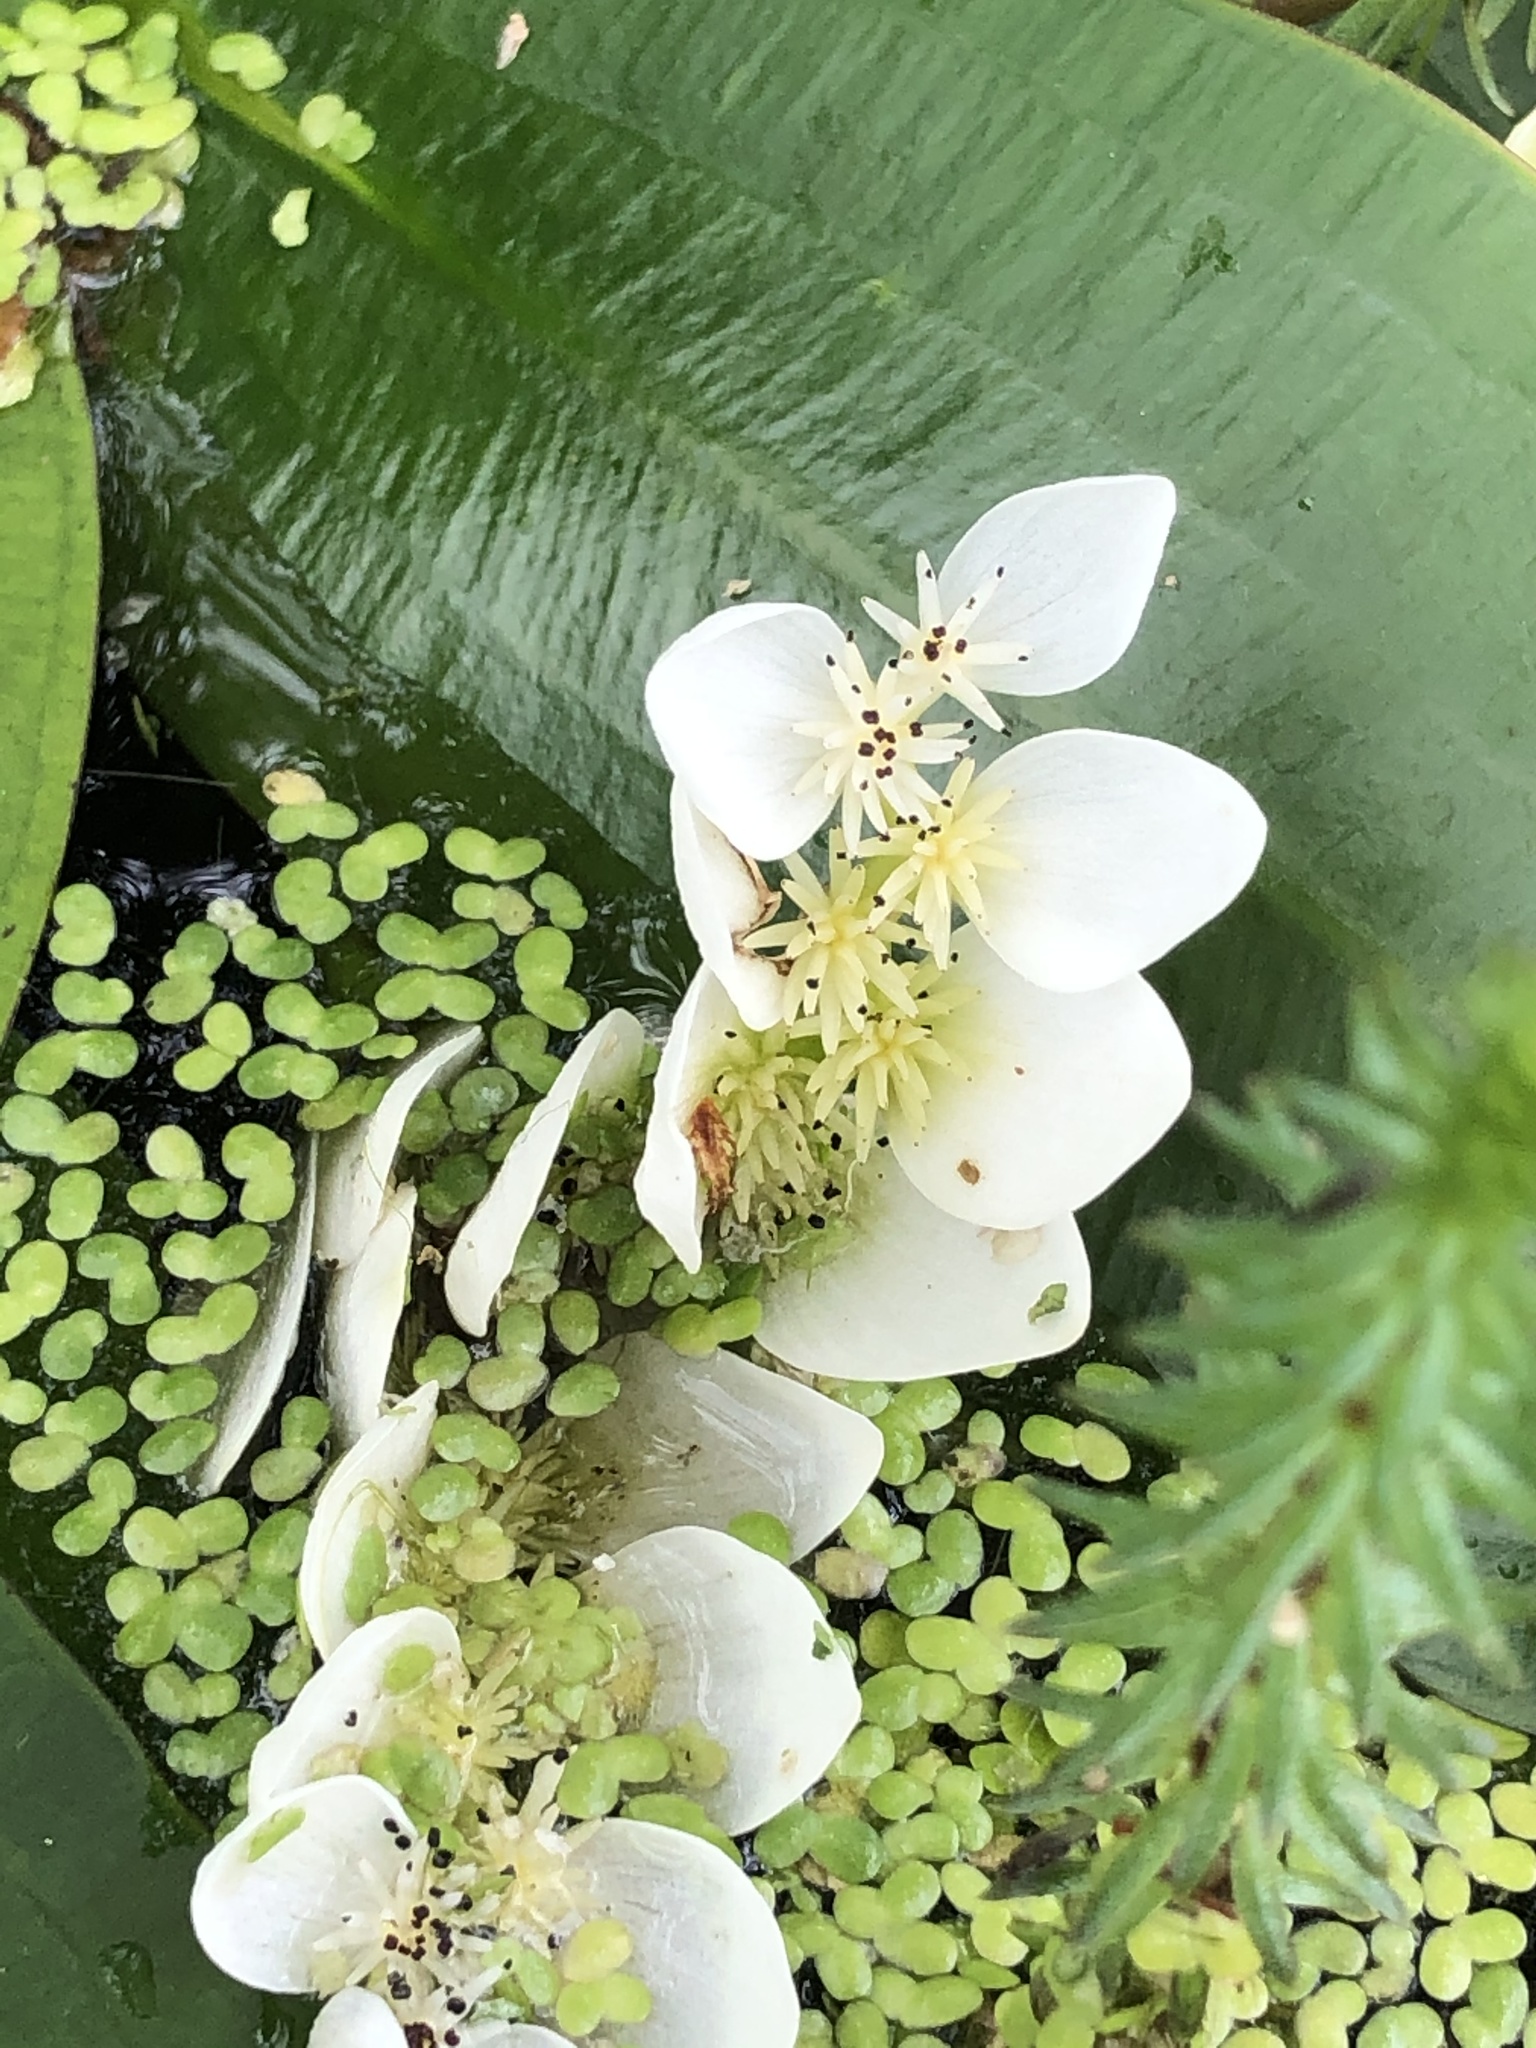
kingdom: Plantae
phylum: Tracheophyta
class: Liliopsida
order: Alismatales
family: Aponogetonaceae
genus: Aponogeton
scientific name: Aponogeton distachyos
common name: Cape-pondweed
